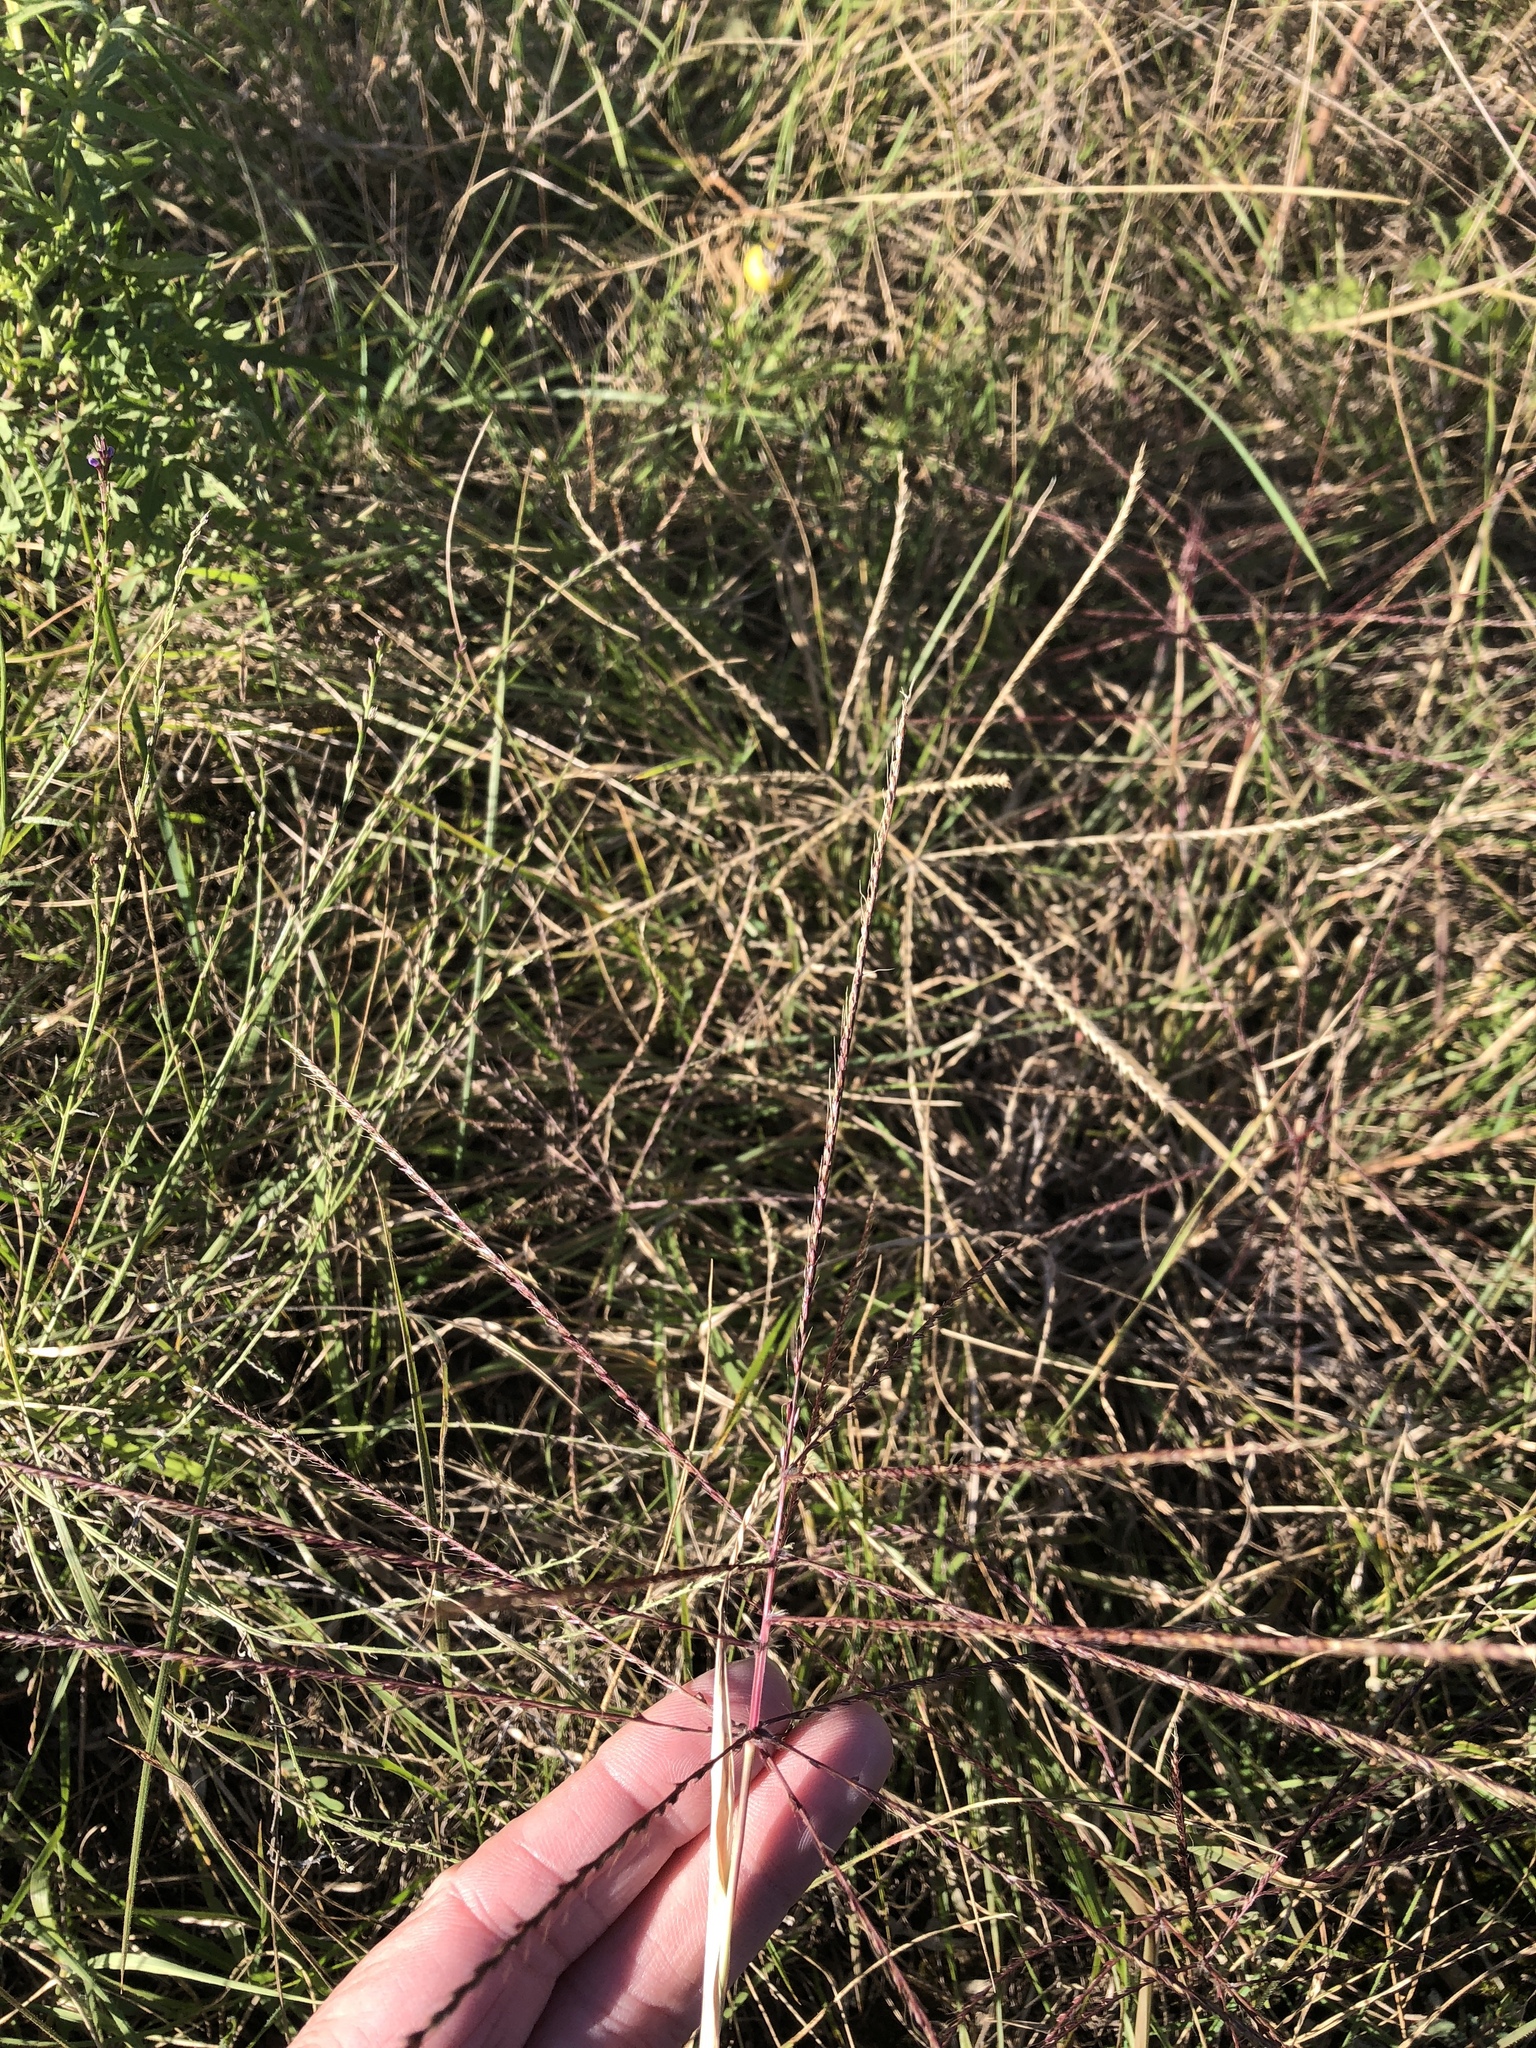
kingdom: Plantae
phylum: Tracheophyta
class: Liliopsida
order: Poales
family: Poaceae
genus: Chloris
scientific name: Chloris verticillata
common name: Tumble windmill grass
